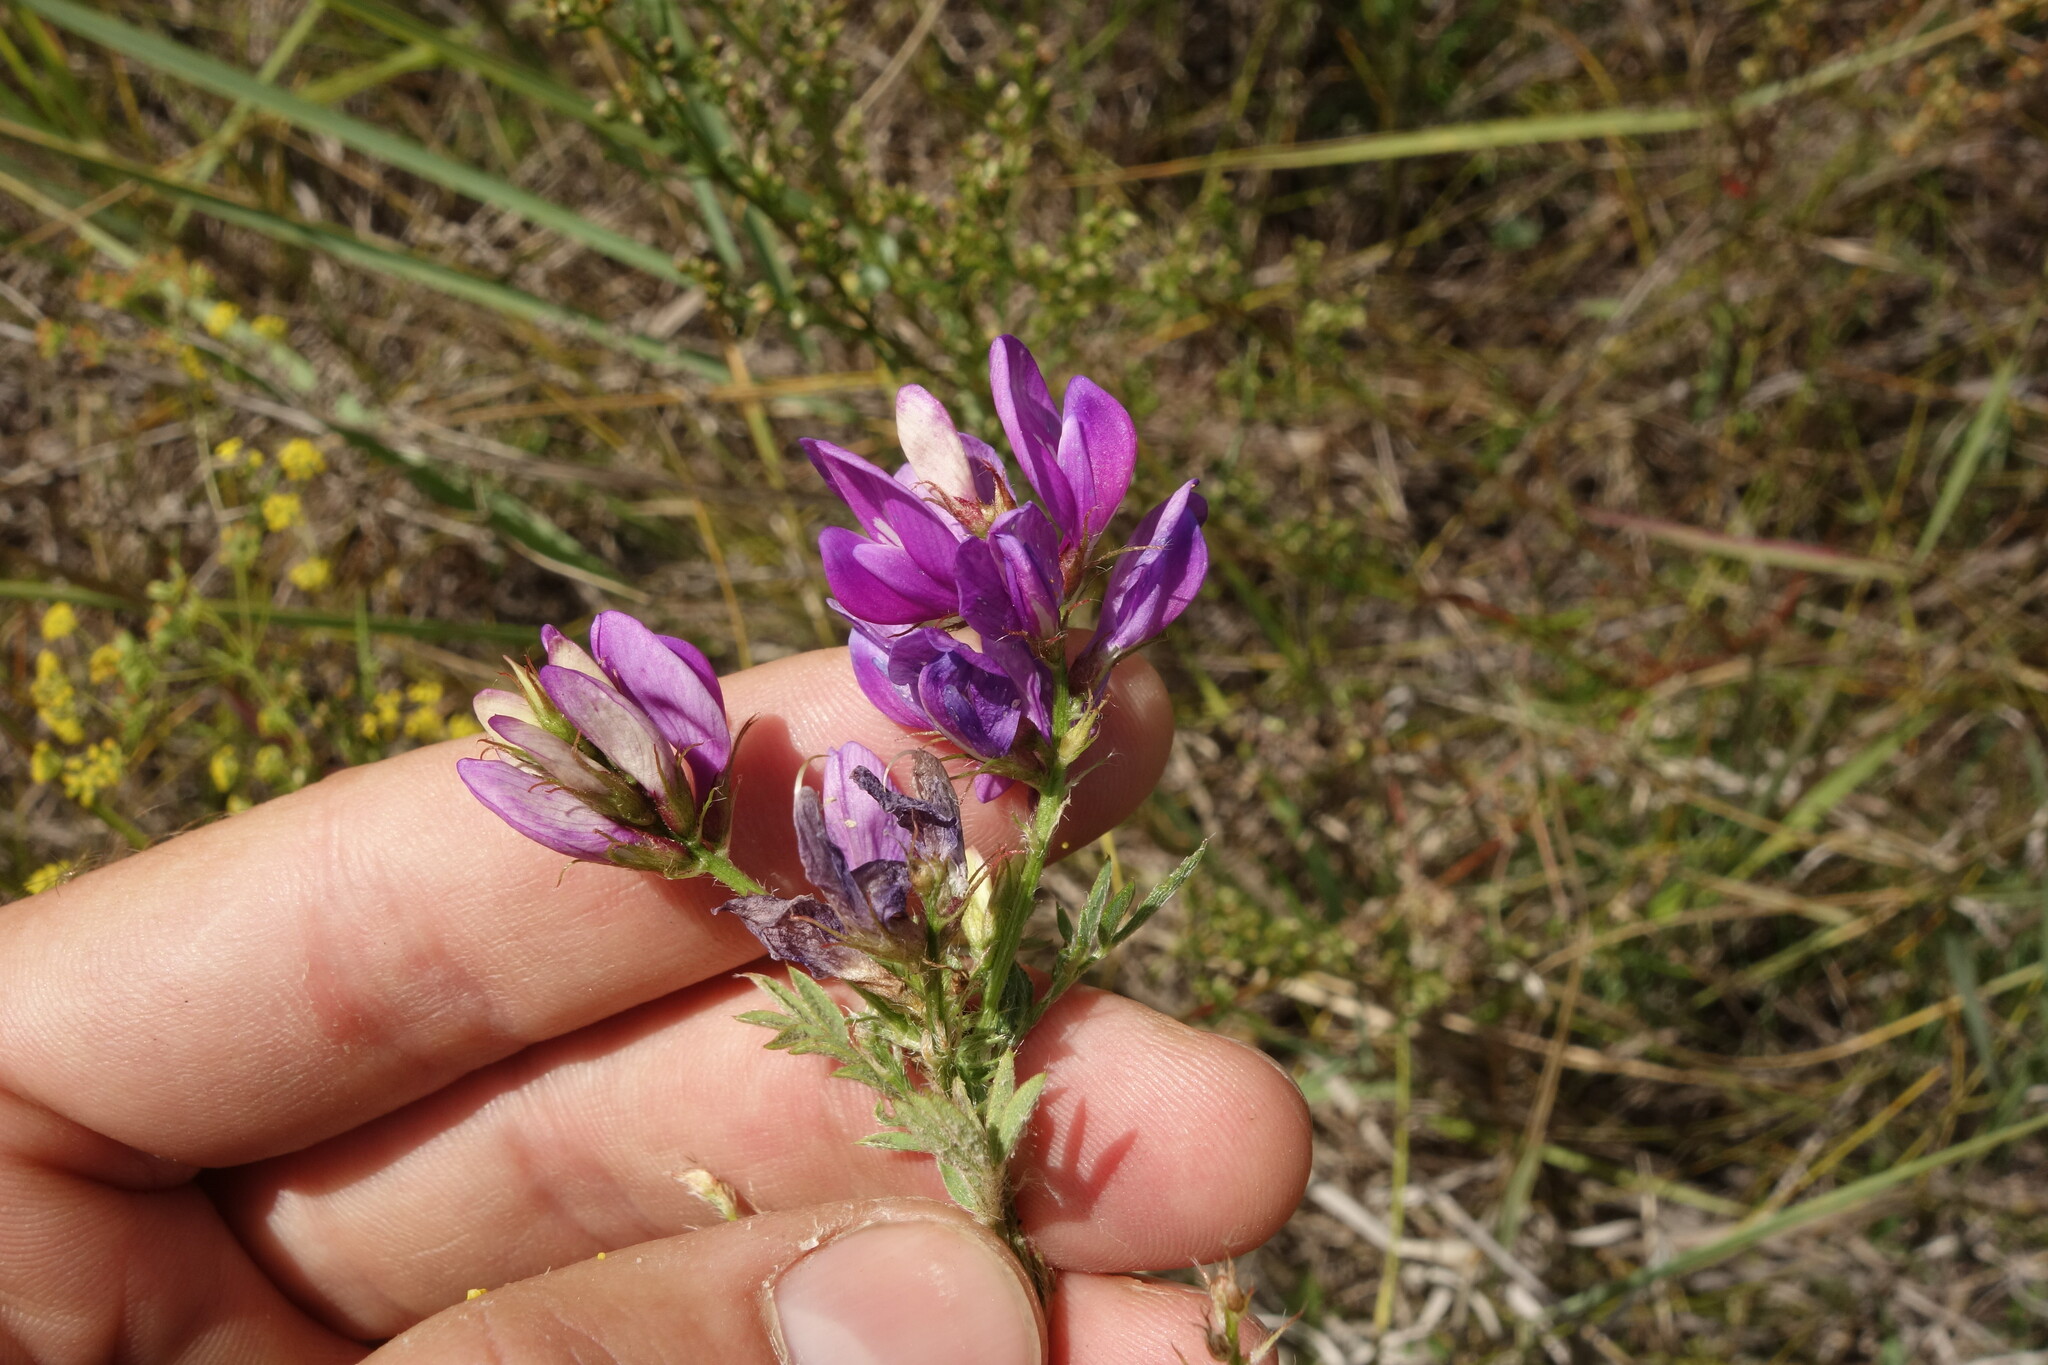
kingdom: Plantae
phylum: Tracheophyta
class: Magnoliopsida
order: Fabales
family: Fabaceae
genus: Astragalus
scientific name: Astragalus davuricus
